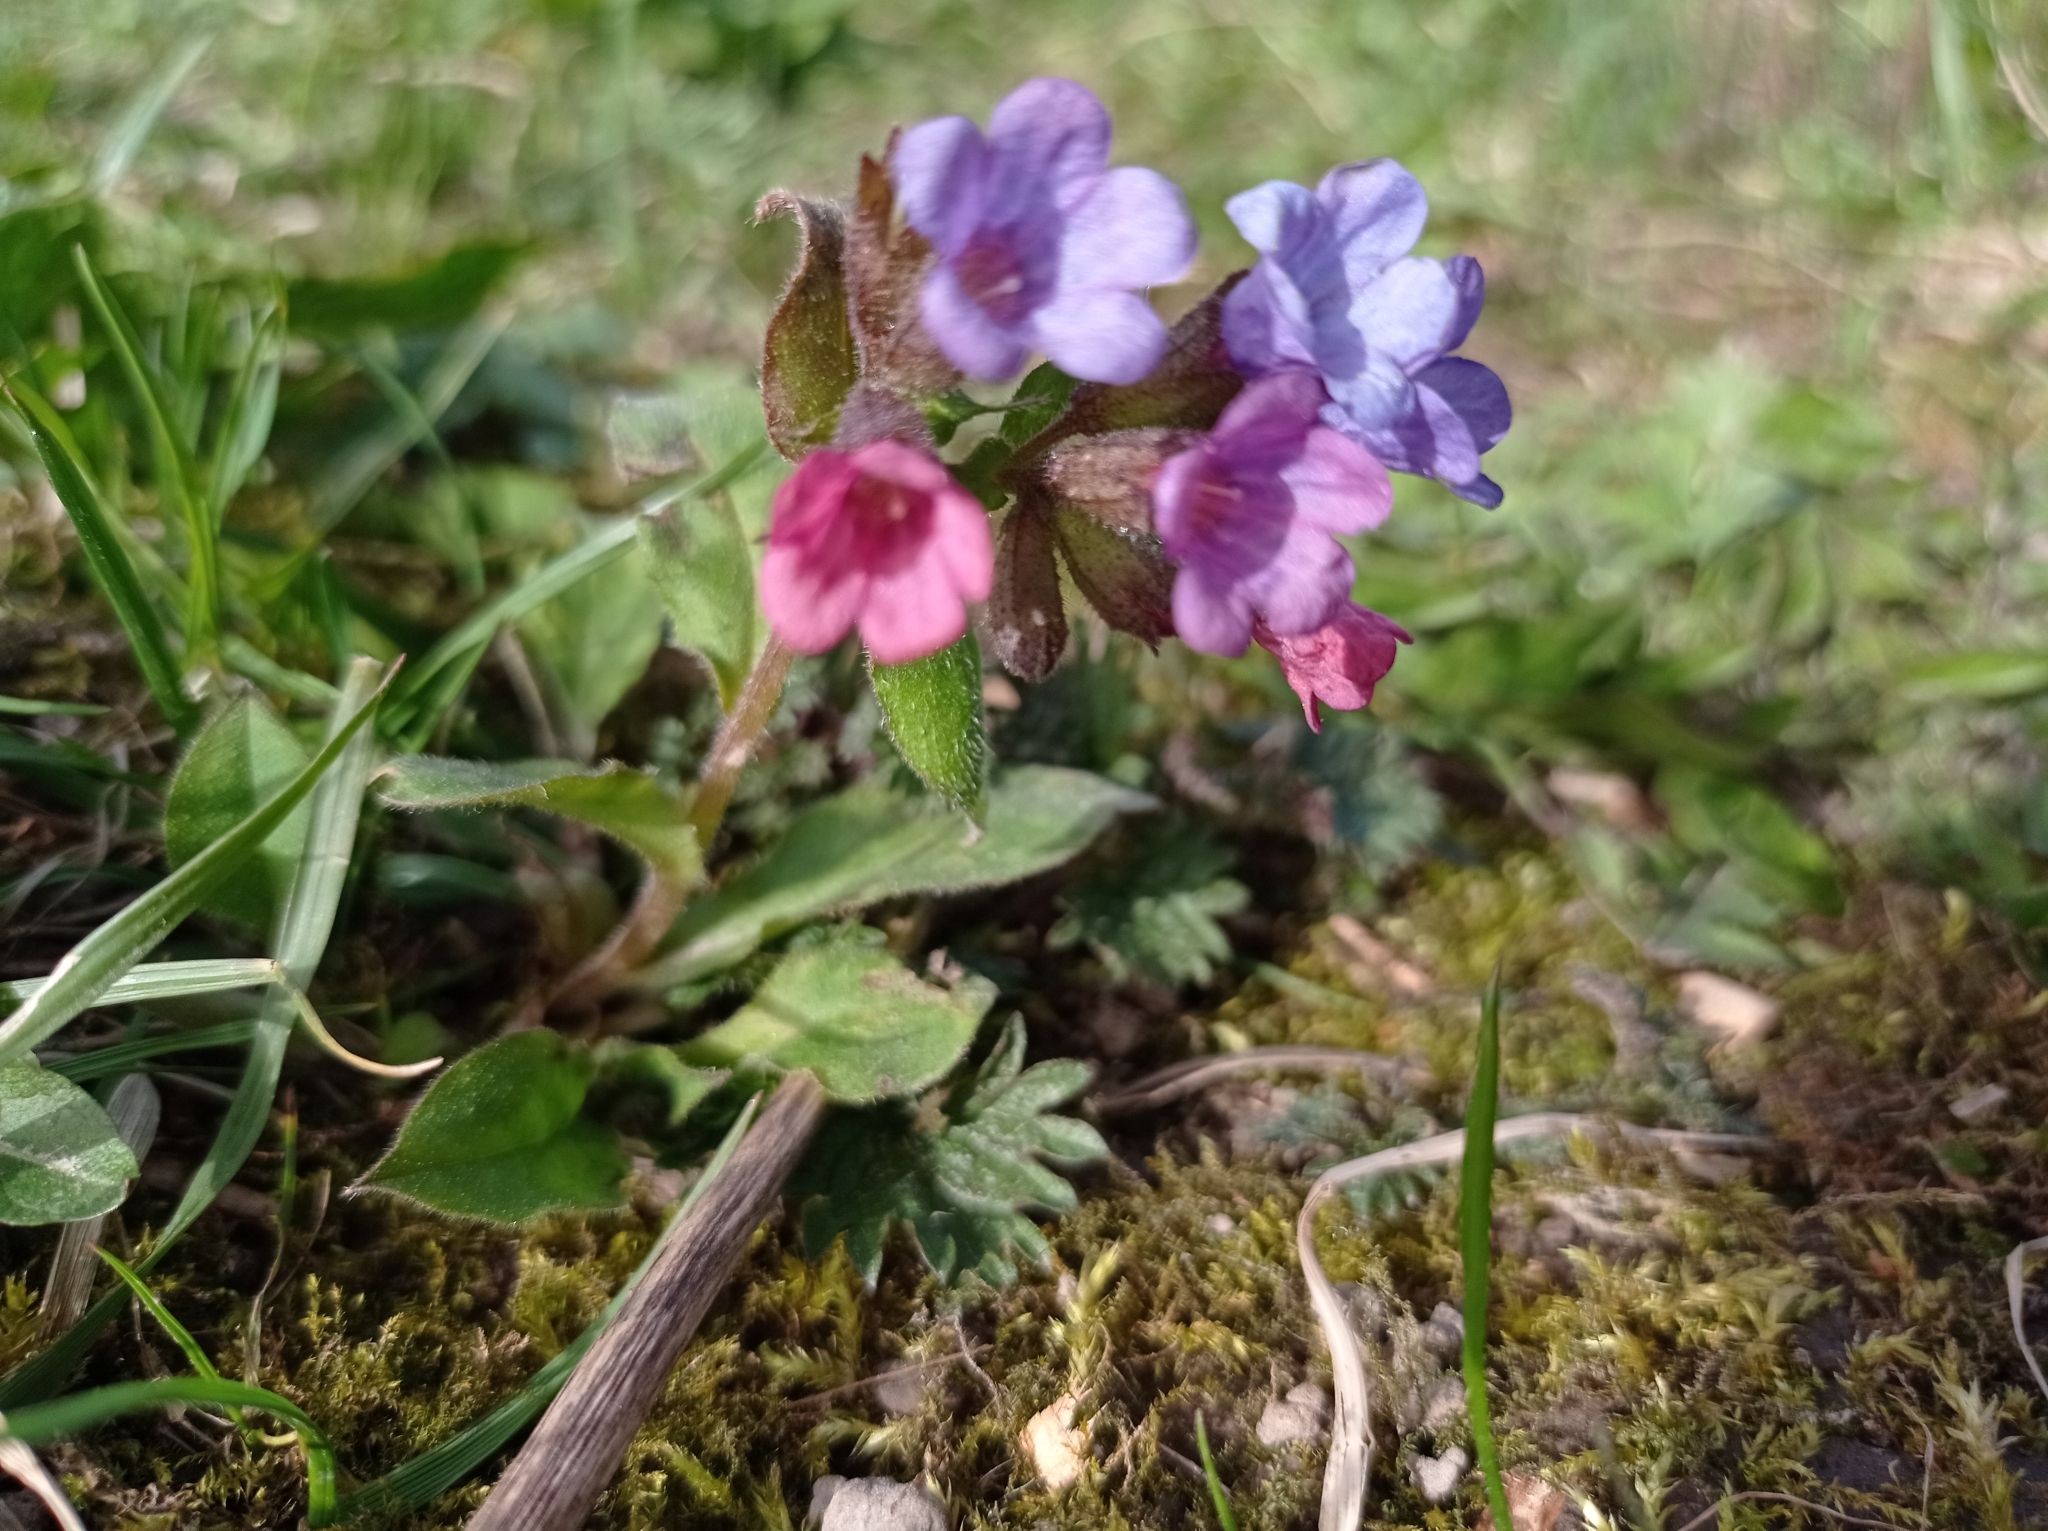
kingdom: Plantae
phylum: Tracheophyta
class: Magnoliopsida
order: Boraginales
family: Boraginaceae
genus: Pulmonaria
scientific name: Pulmonaria obscura
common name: Suffolk lungwort
